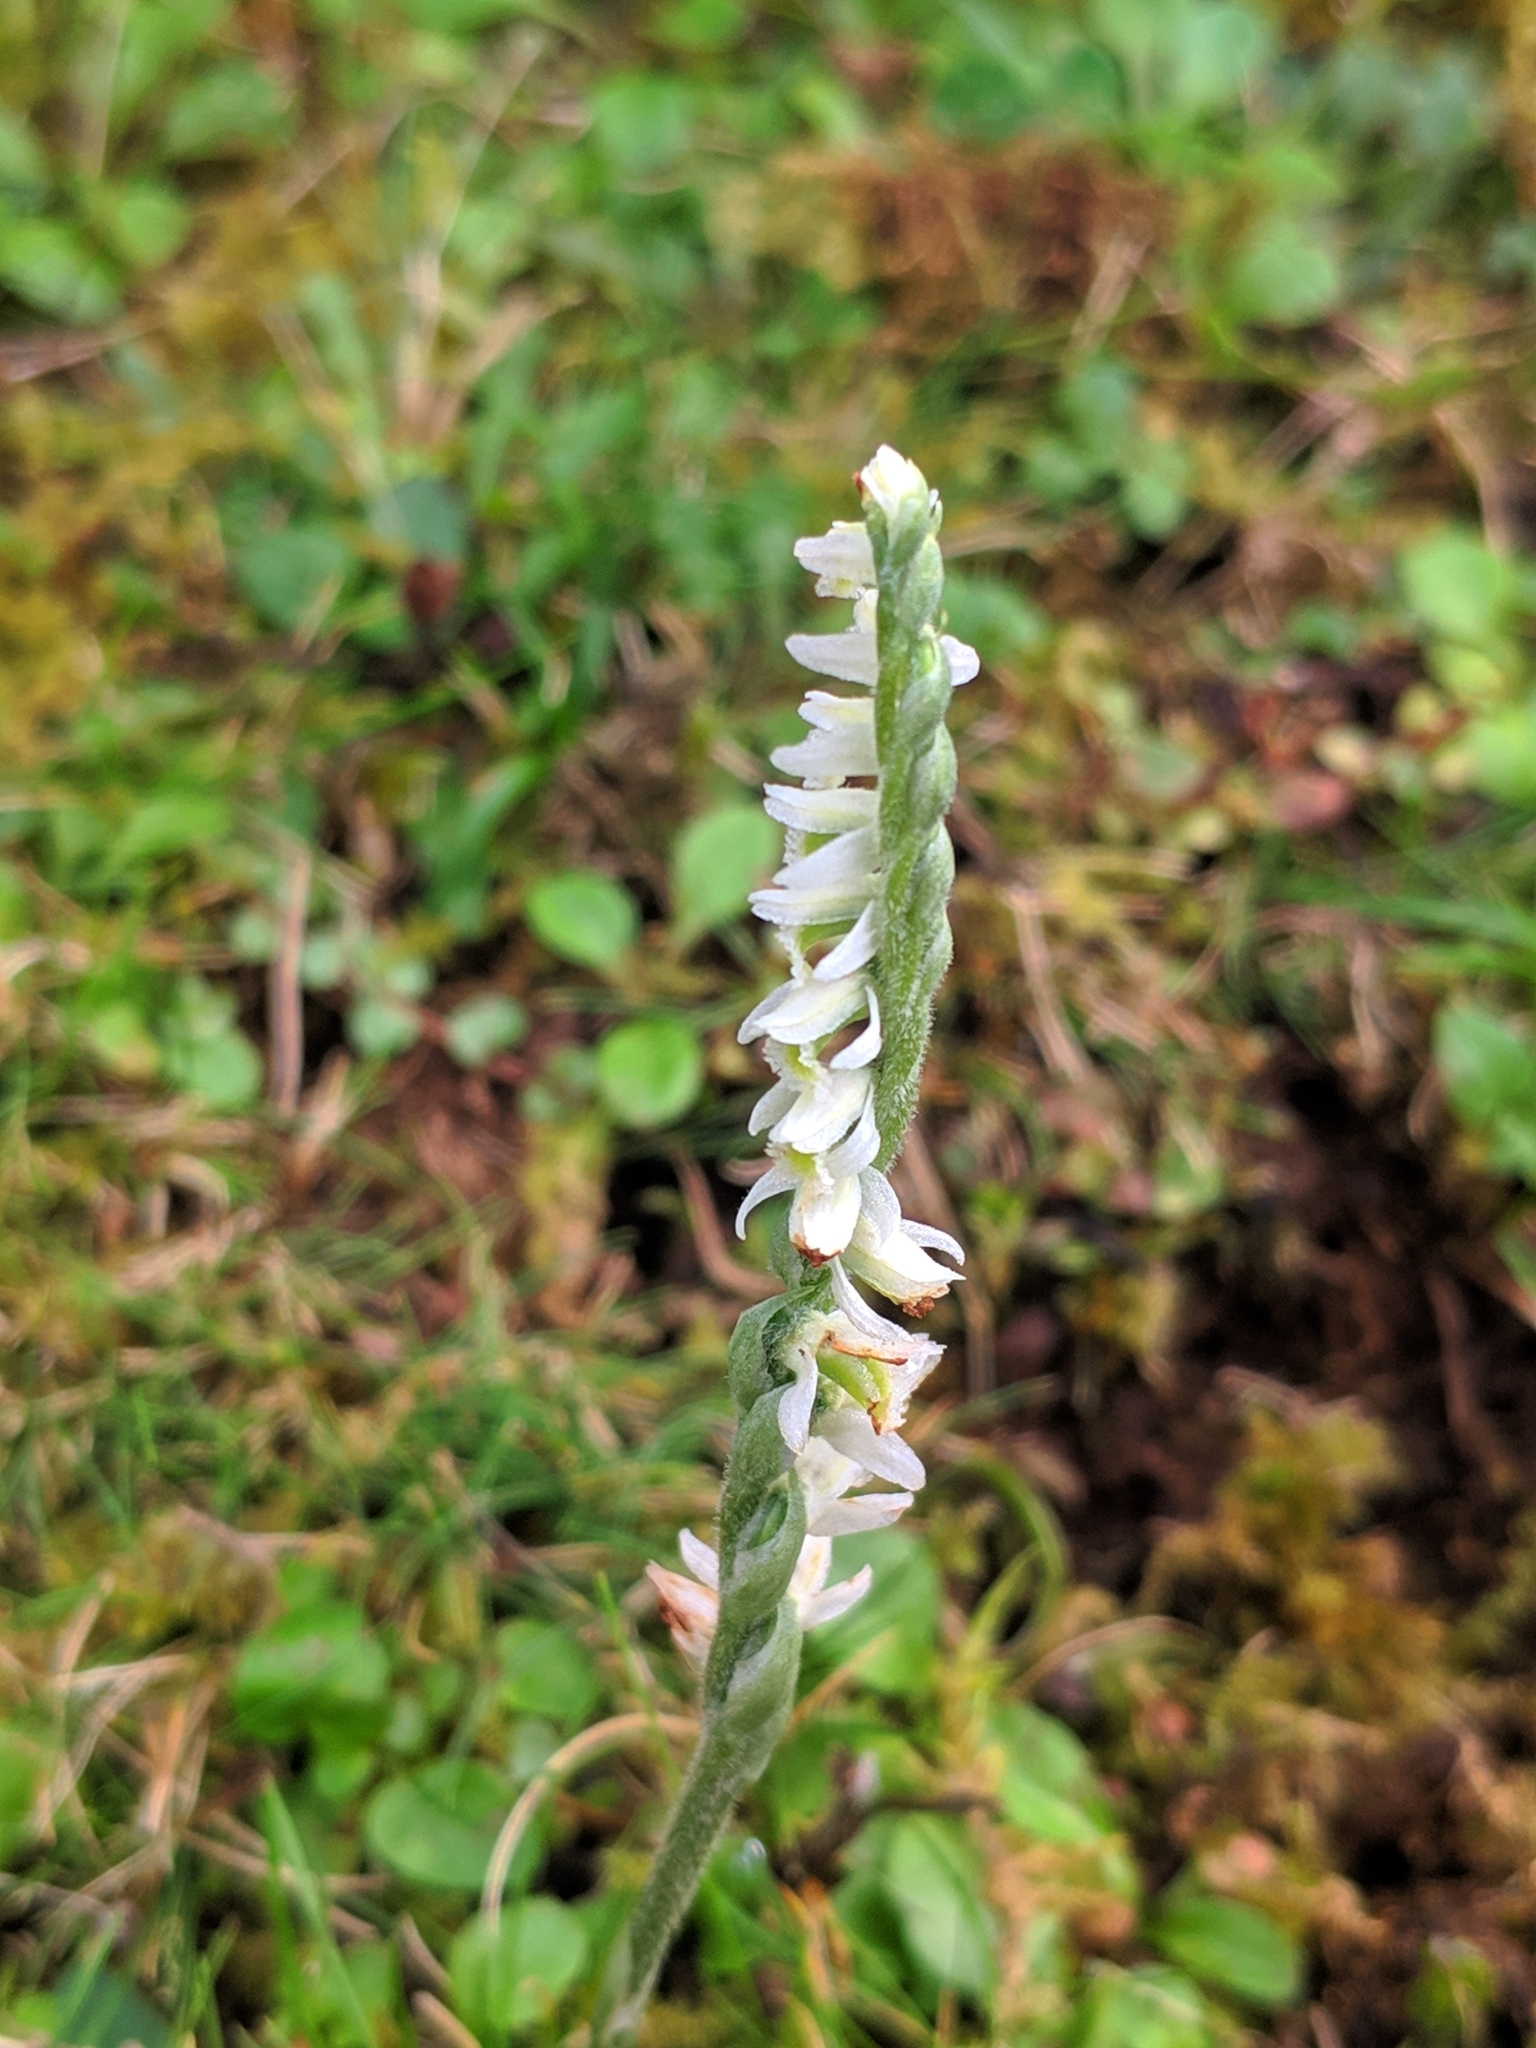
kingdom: Plantae
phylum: Tracheophyta
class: Liliopsida
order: Asparagales
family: Orchidaceae
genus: Spiranthes
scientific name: Spiranthes spiralis
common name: Autumn lady's-tresses
